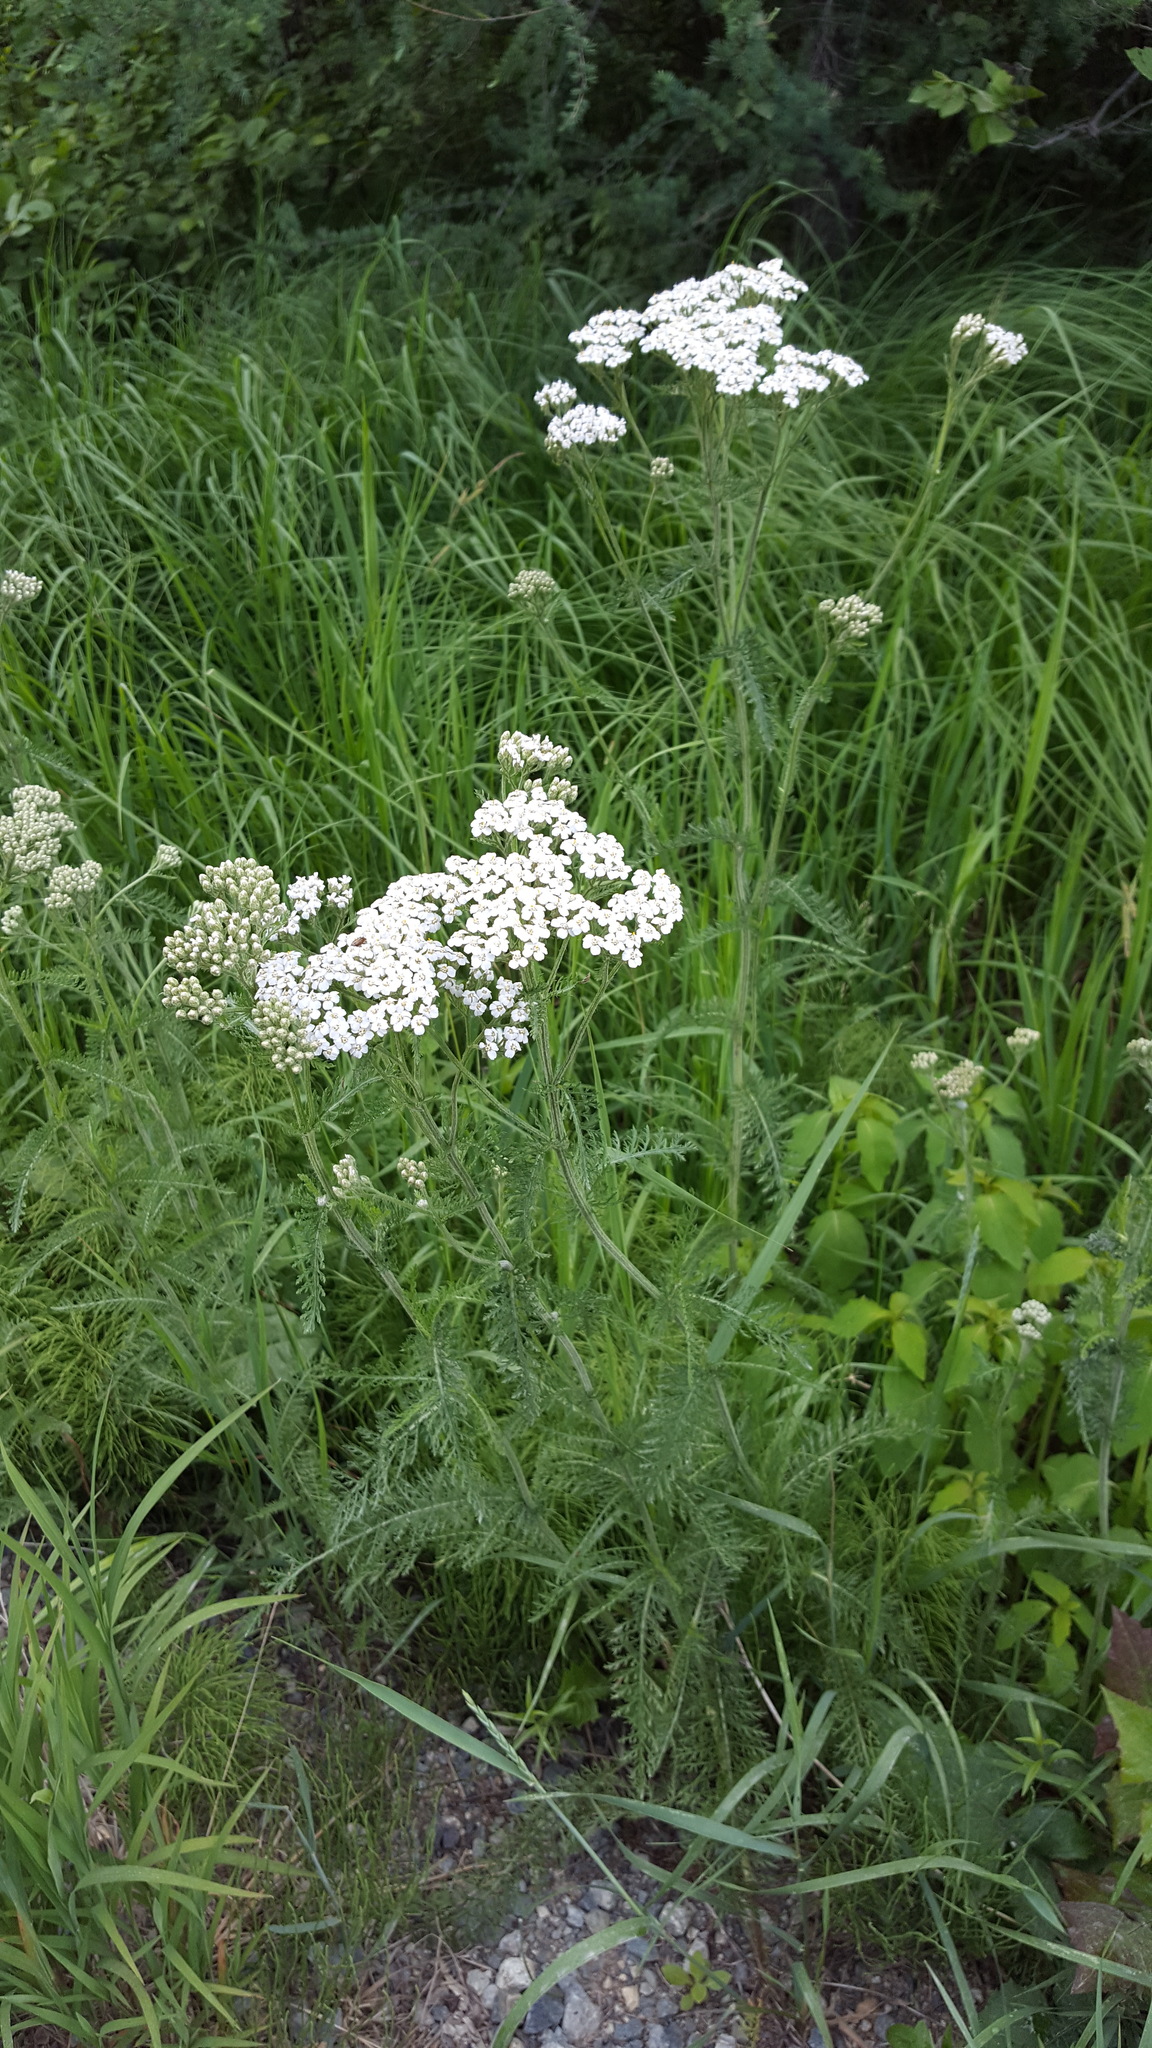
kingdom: Plantae
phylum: Tracheophyta
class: Magnoliopsida
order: Asterales
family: Asteraceae
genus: Achillea
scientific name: Achillea millefolium
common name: Yarrow
